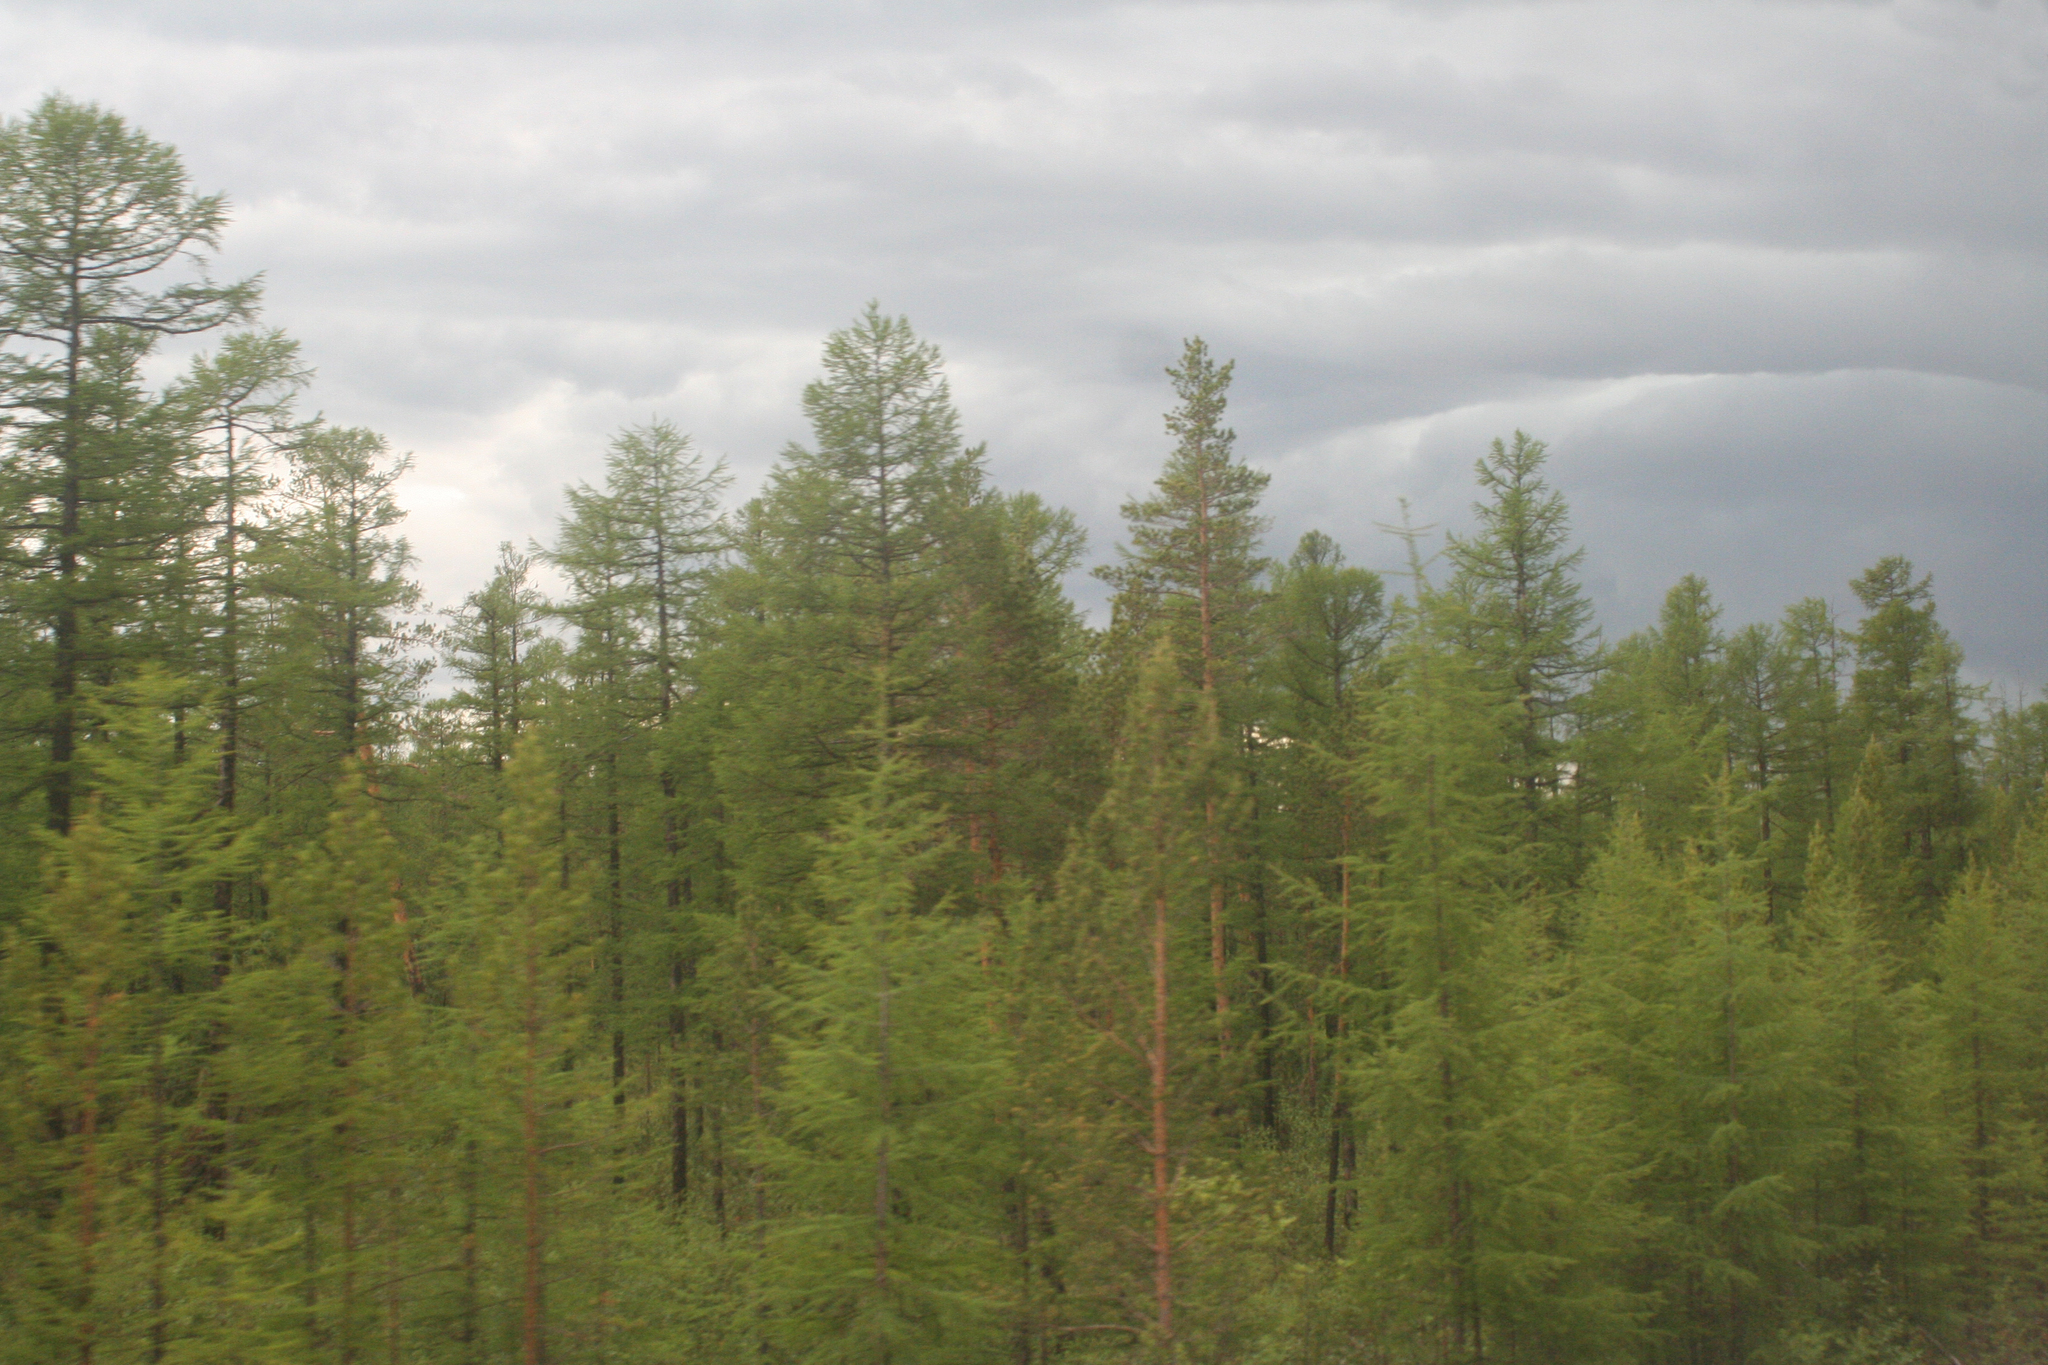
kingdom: Plantae
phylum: Tracheophyta
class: Pinopsida
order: Pinales
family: Pinaceae
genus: Pinus
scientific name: Pinus sylvestris
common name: Scots pine
